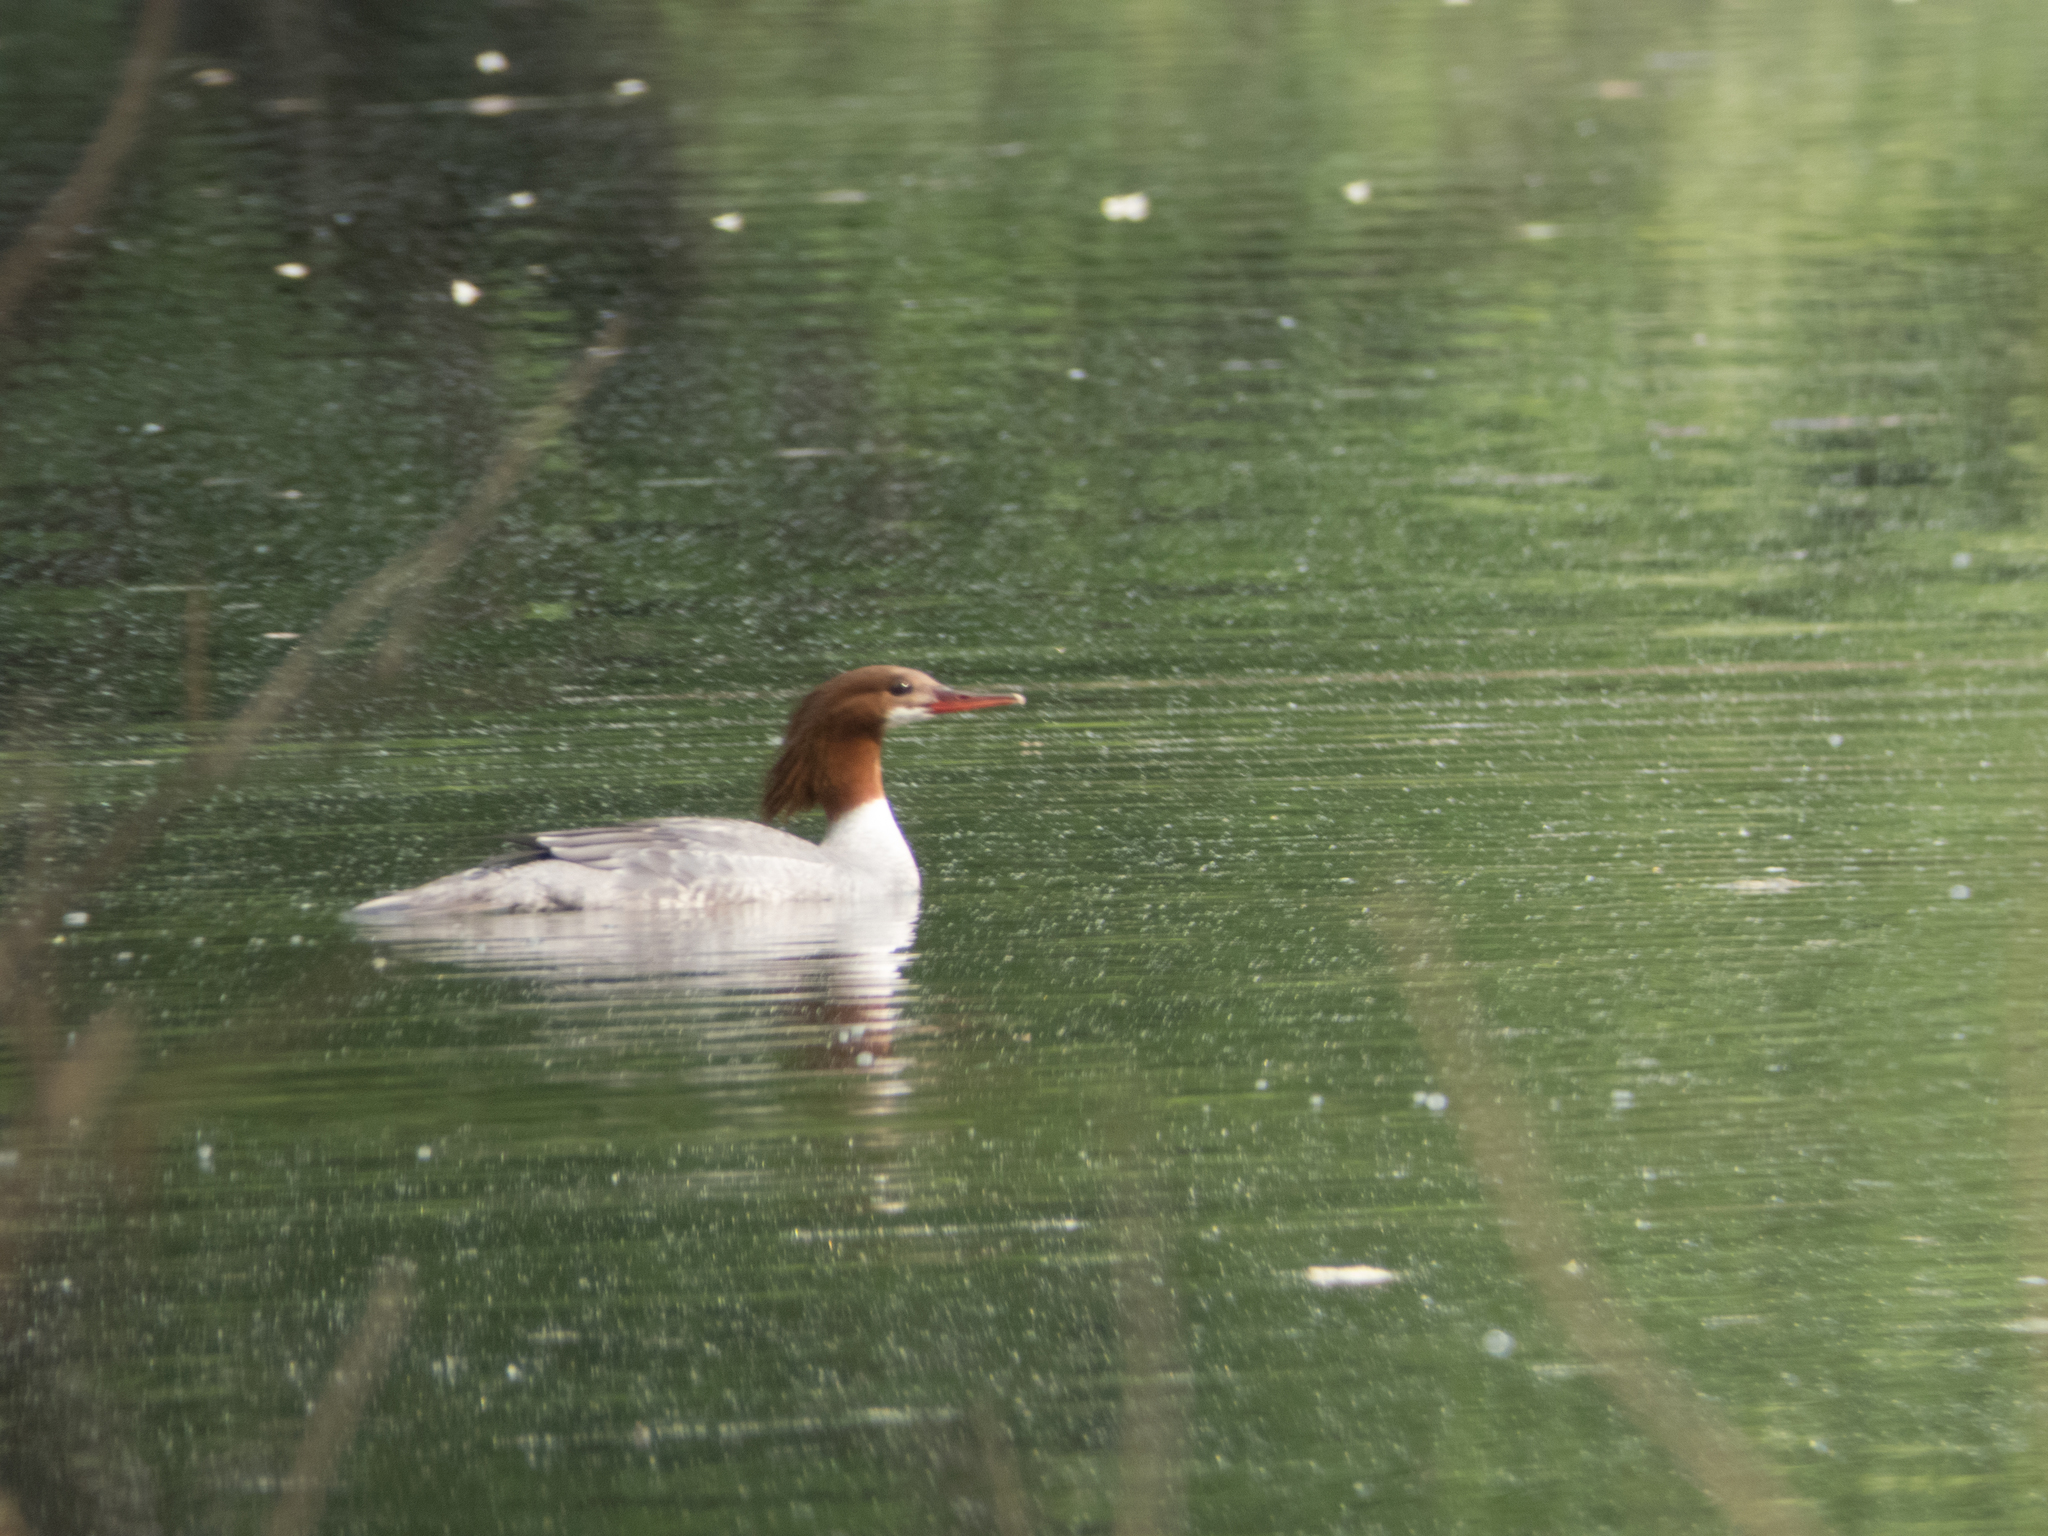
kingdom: Animalia
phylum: Chordata
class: Aves
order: Anseriformes
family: Anatidae
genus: Mergus
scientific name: Mergus merganser
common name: Common merganser
